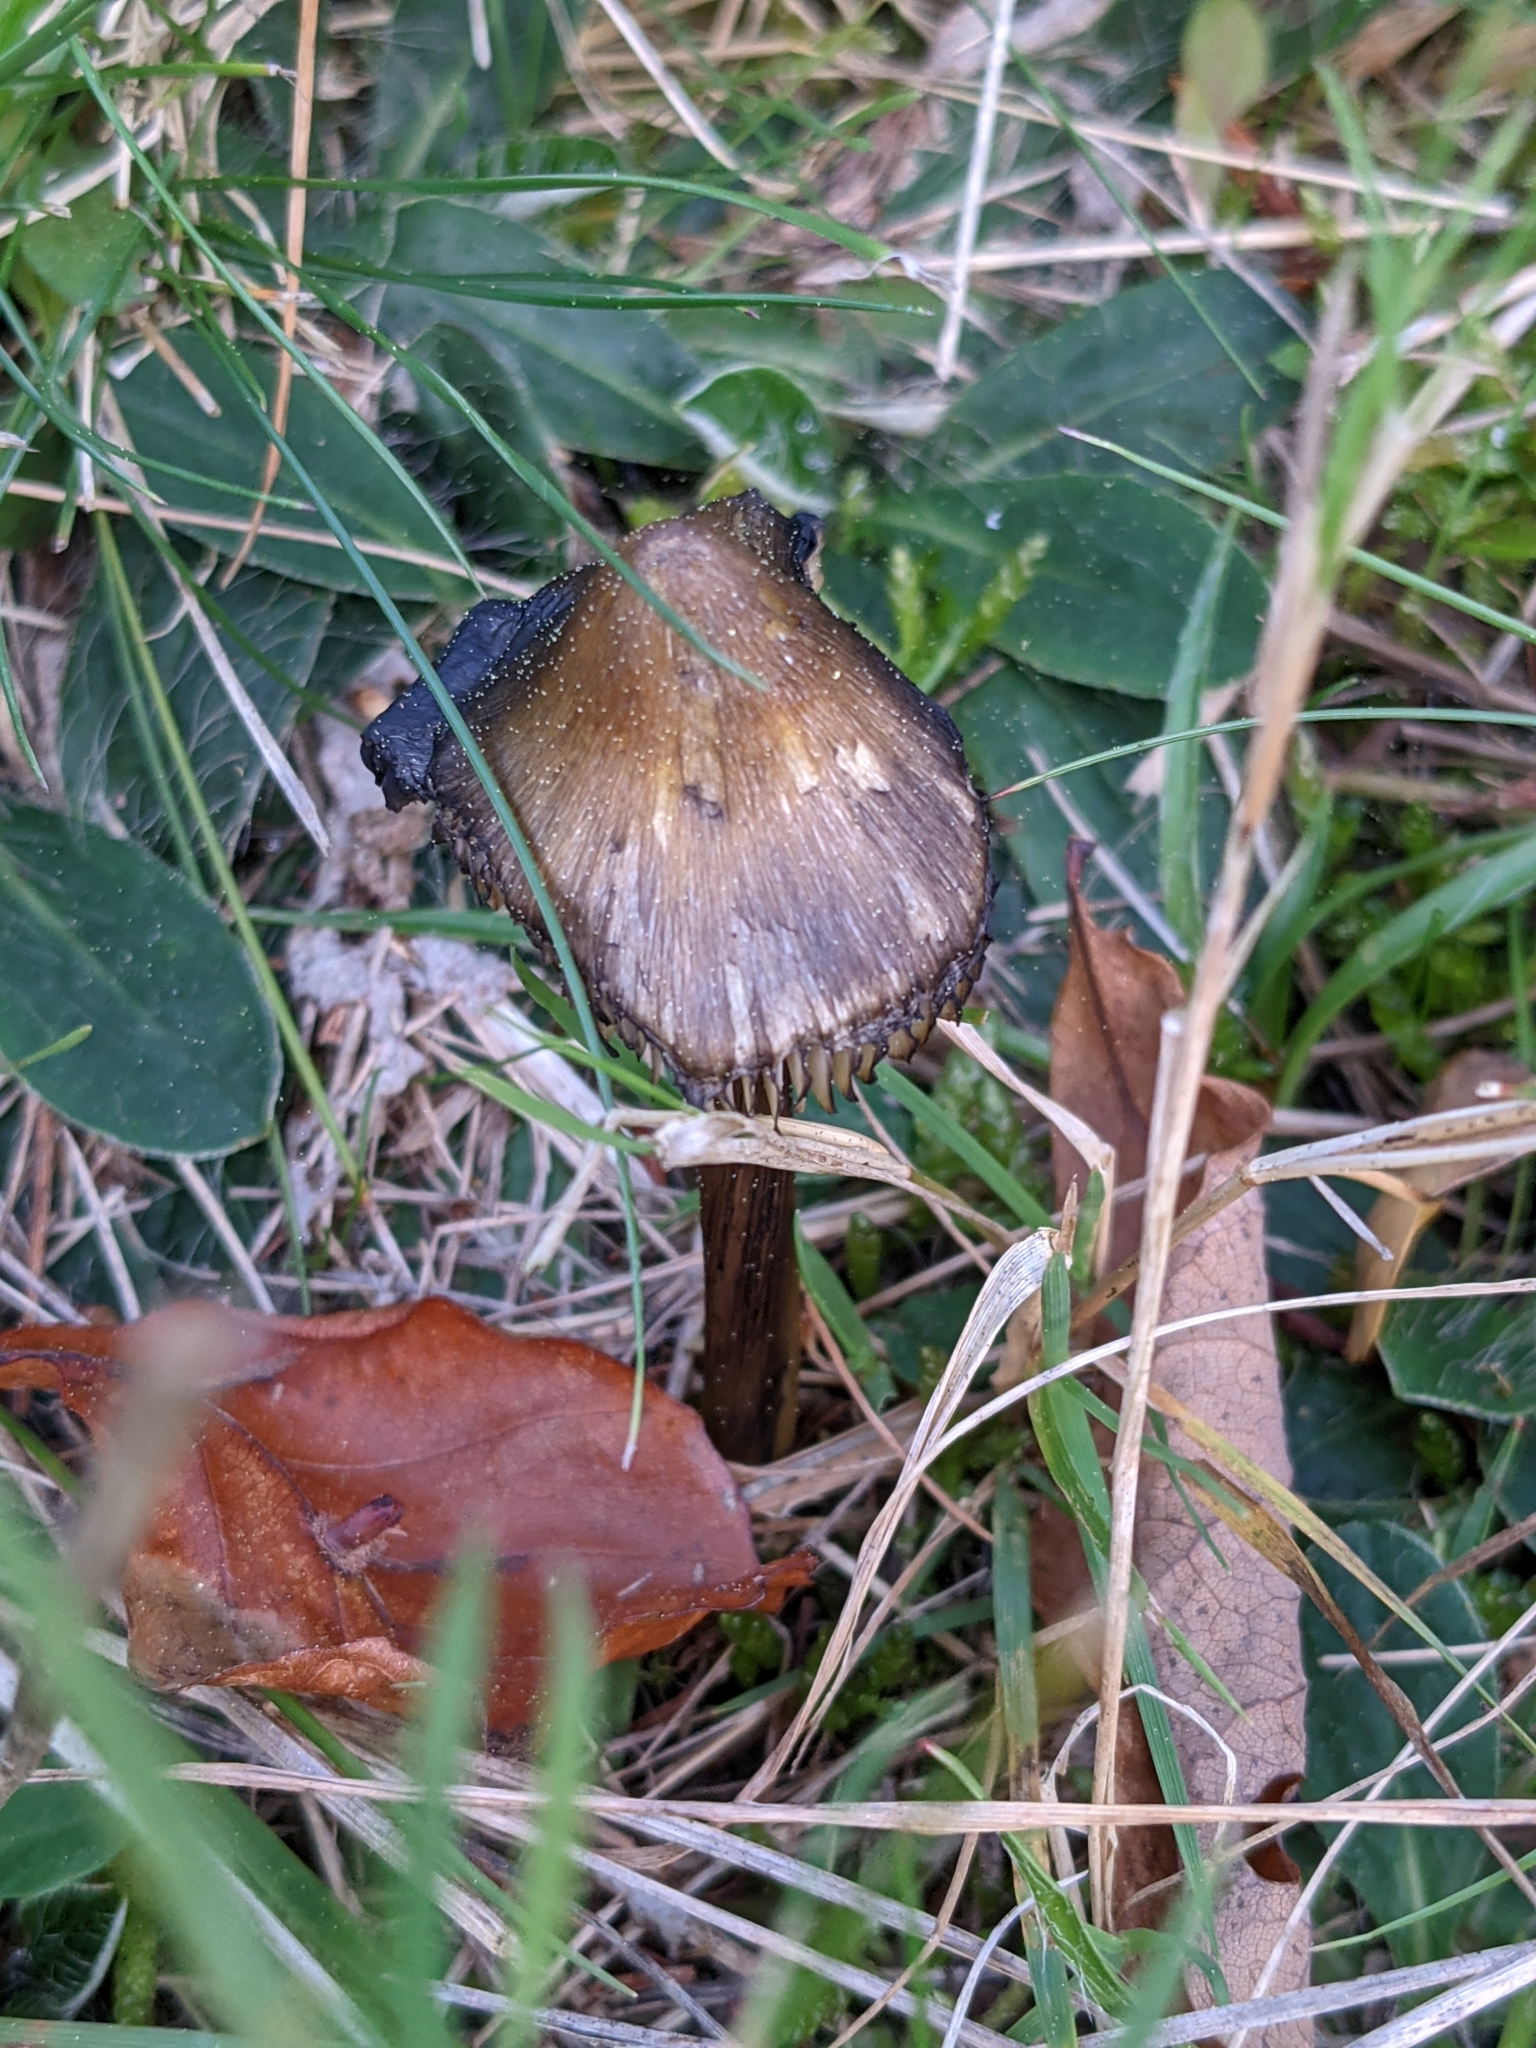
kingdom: Fungi
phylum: Basidiomycota
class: Agaricomycetes
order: Agaricales
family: Hygrophoraceae
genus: Hygrocybe
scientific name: Hygrocybe conica
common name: Blackening wax-cap
